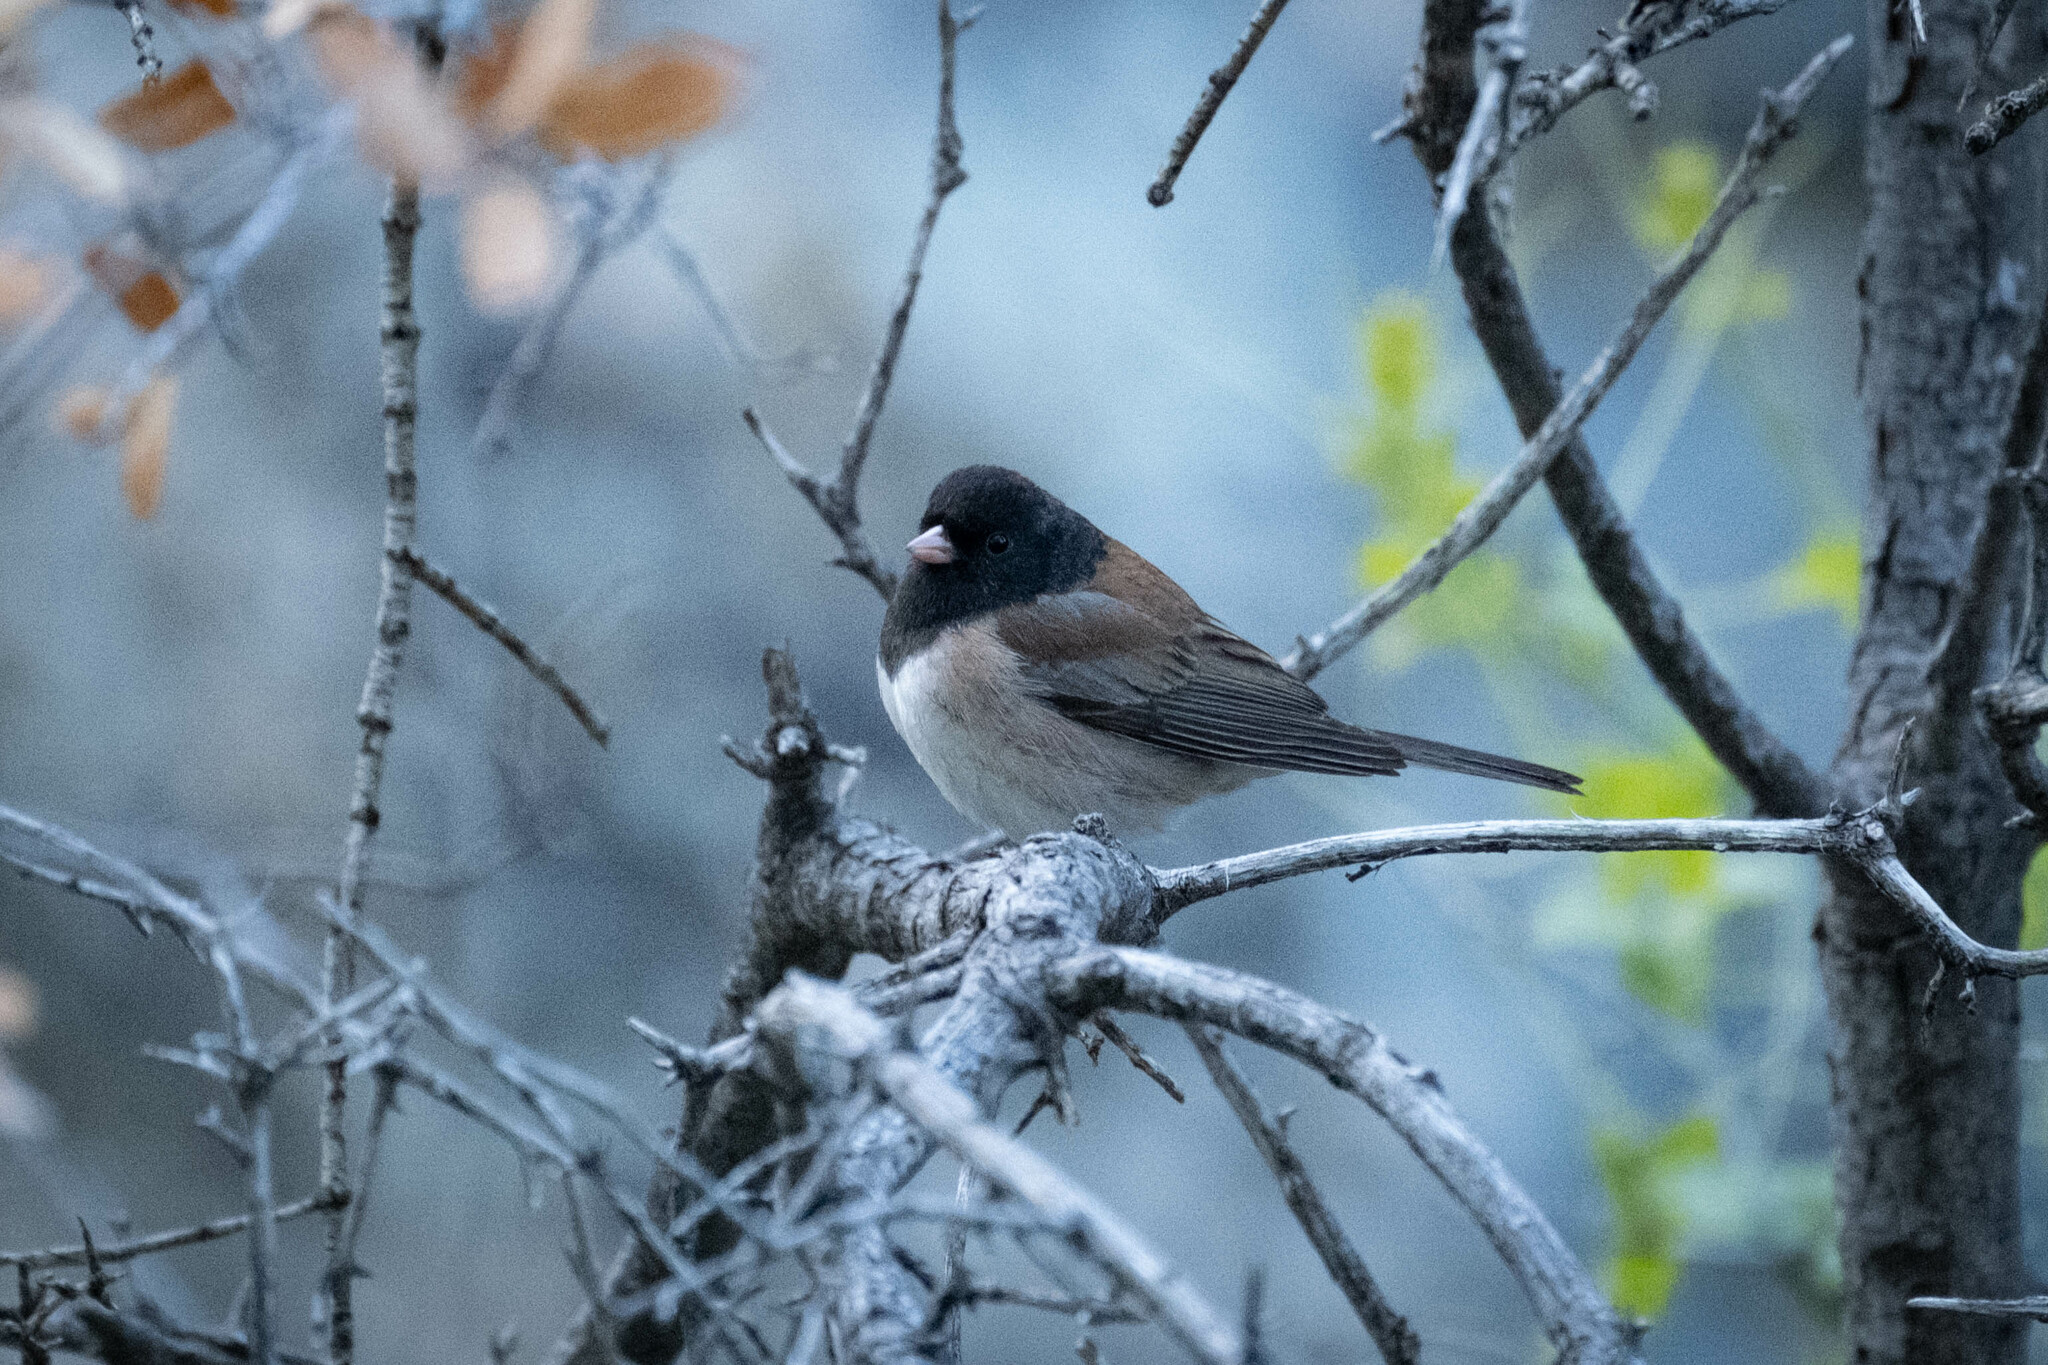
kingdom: Animalia
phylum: Chordata
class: Aves
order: Passeriformes
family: Passerellidae
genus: Junco
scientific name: Junco hyemalis
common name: Dark-eyed junco
